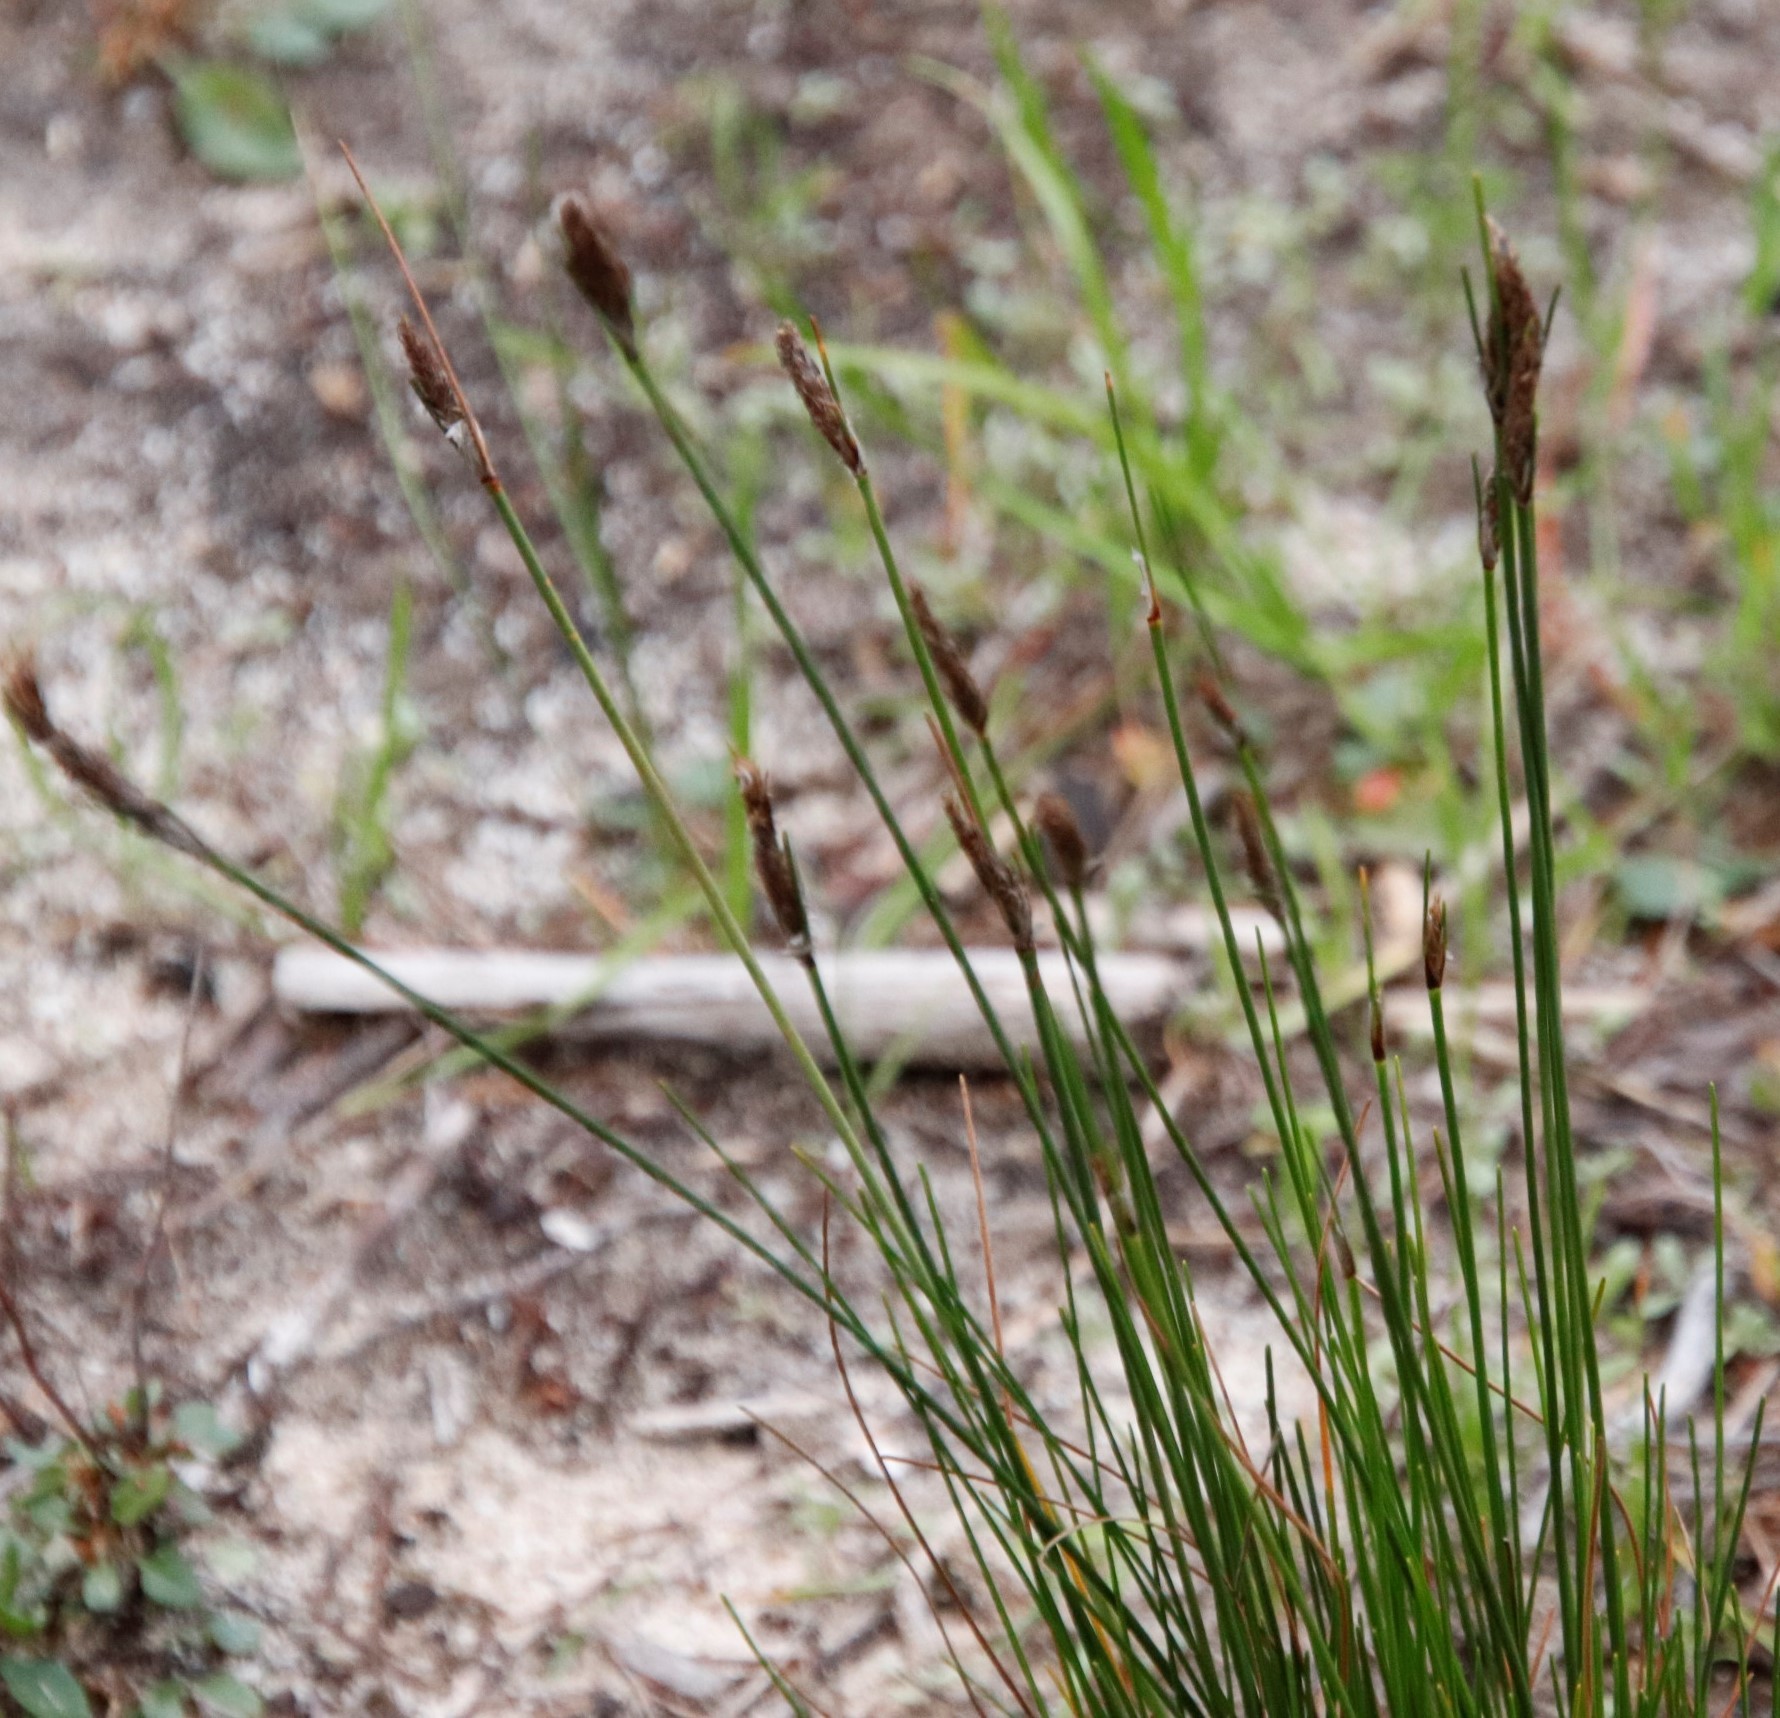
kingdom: Plantae
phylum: Tracheophyta
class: Liliopsida
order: Poales
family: Cyperaceae
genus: Ficinia
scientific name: Ficinia deusta
